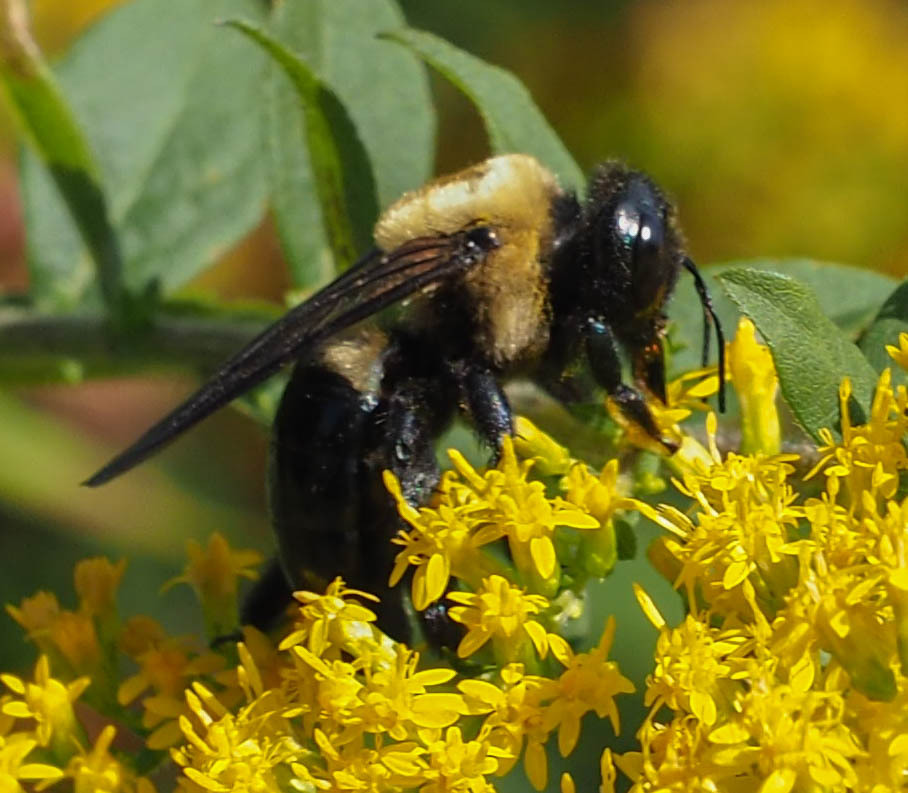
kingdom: Animalia
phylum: Arthropoda
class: Insecta
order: Hymenoptera
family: Apidae
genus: Xylocopa
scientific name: Xylocopa virginica
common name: Carpenter bee
